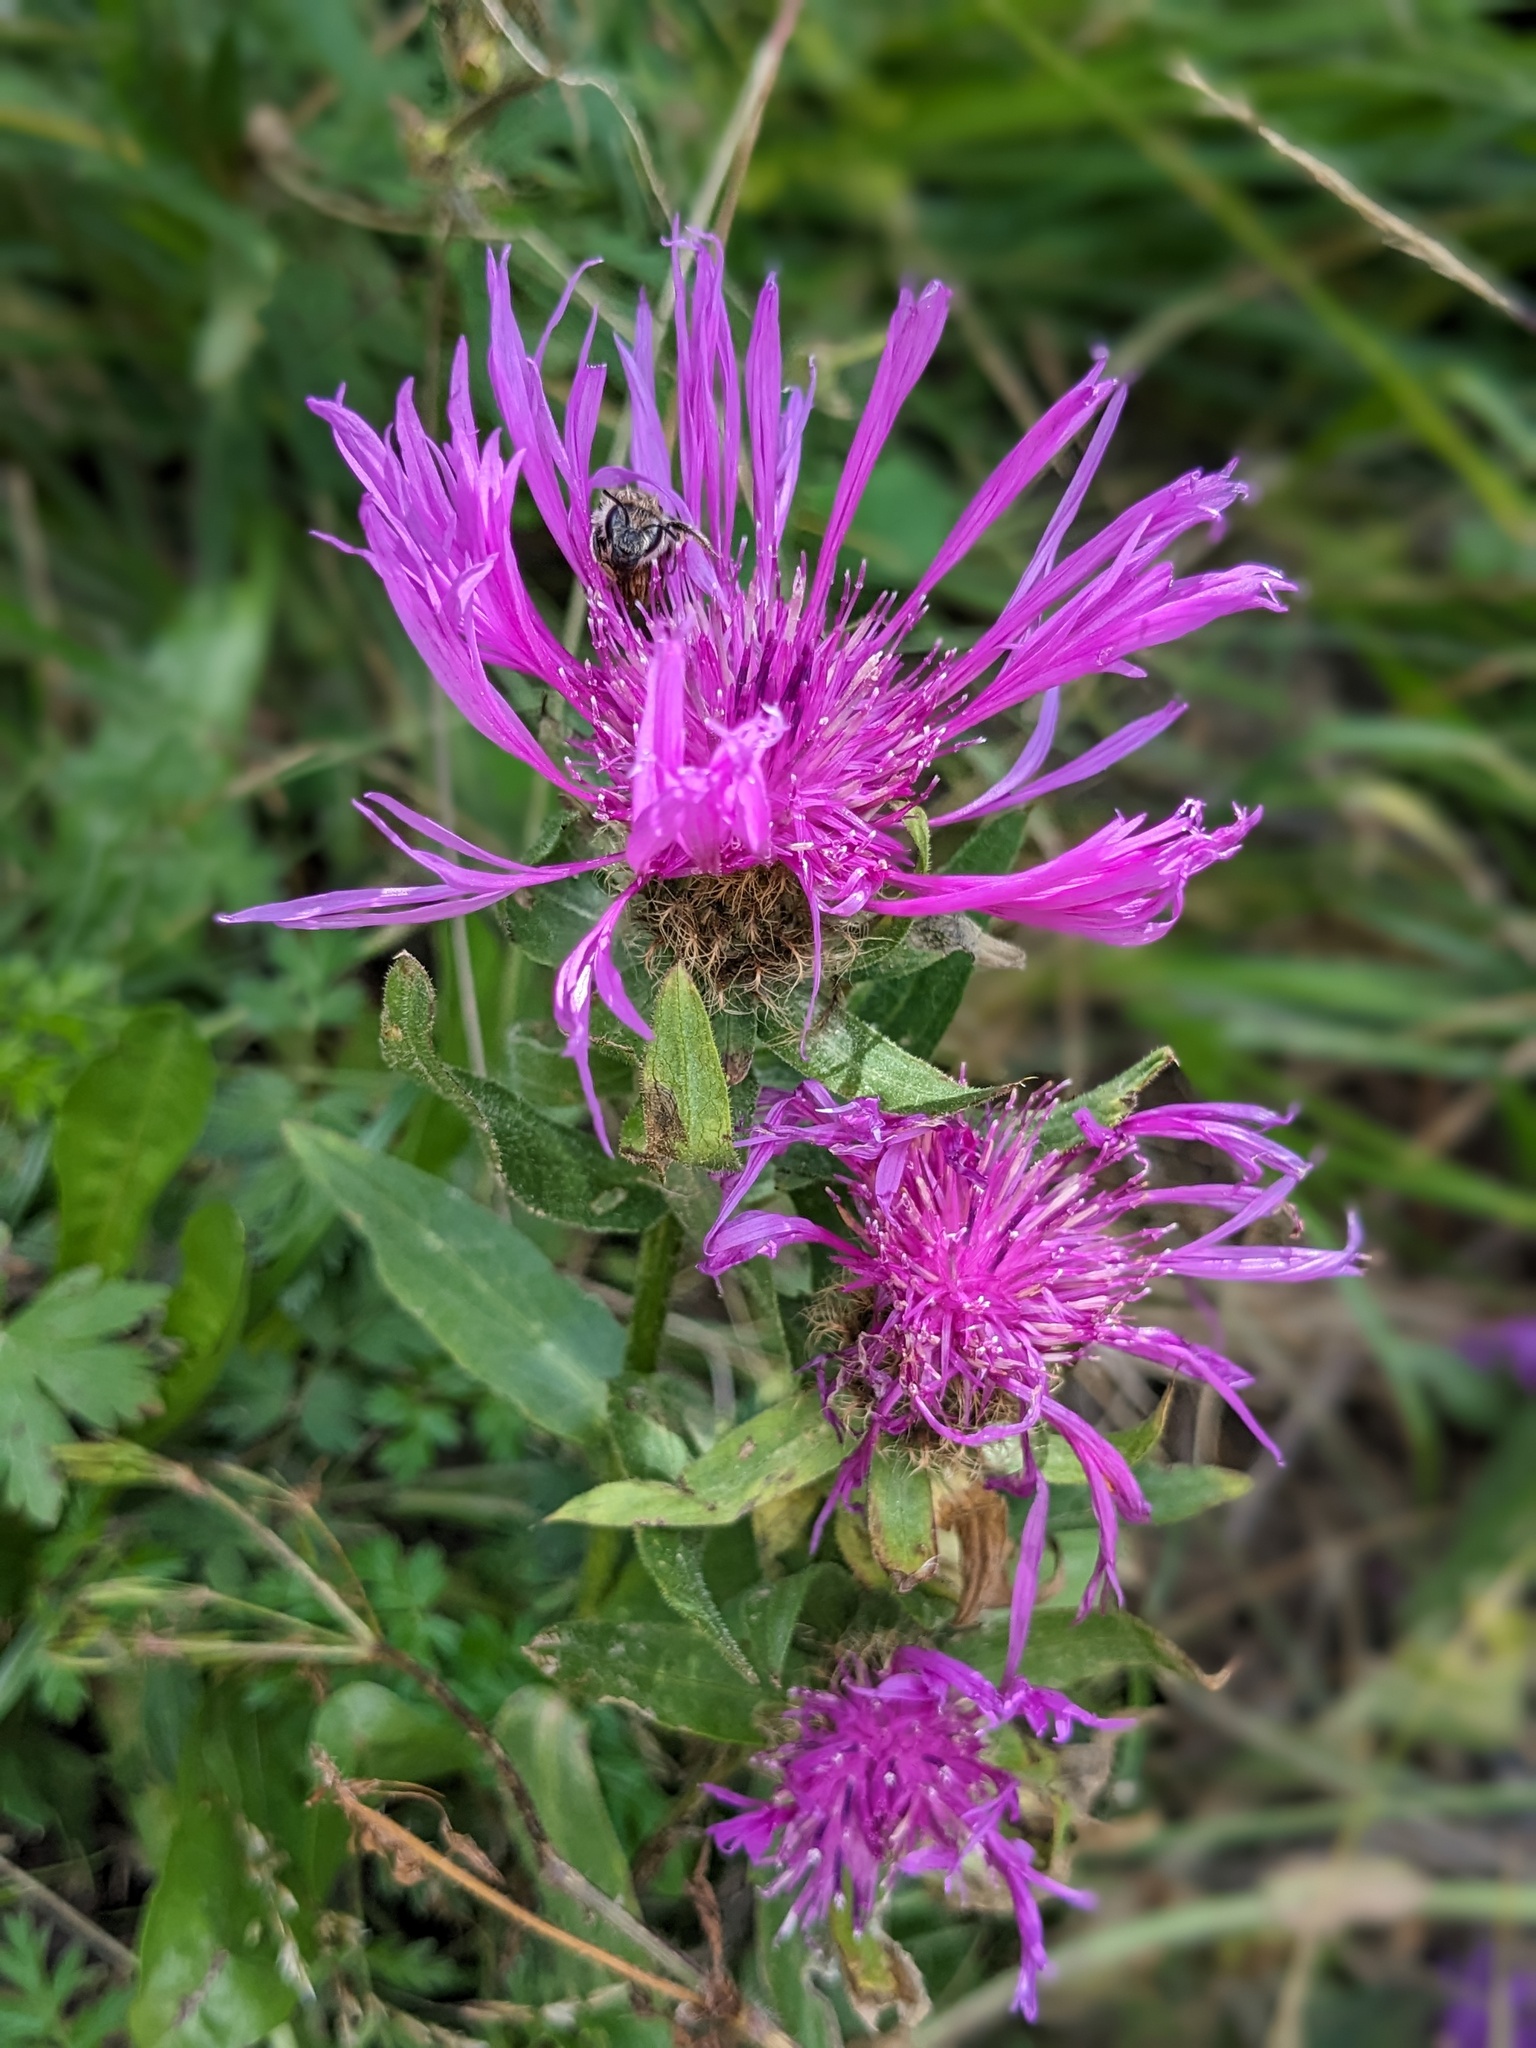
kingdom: Plantae
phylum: Tracheophyta
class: Magnoliopsida
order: Asterales
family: Asteraceae
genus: Centaurea
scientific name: Centaurea nervosa
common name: Singleflower knapweed
